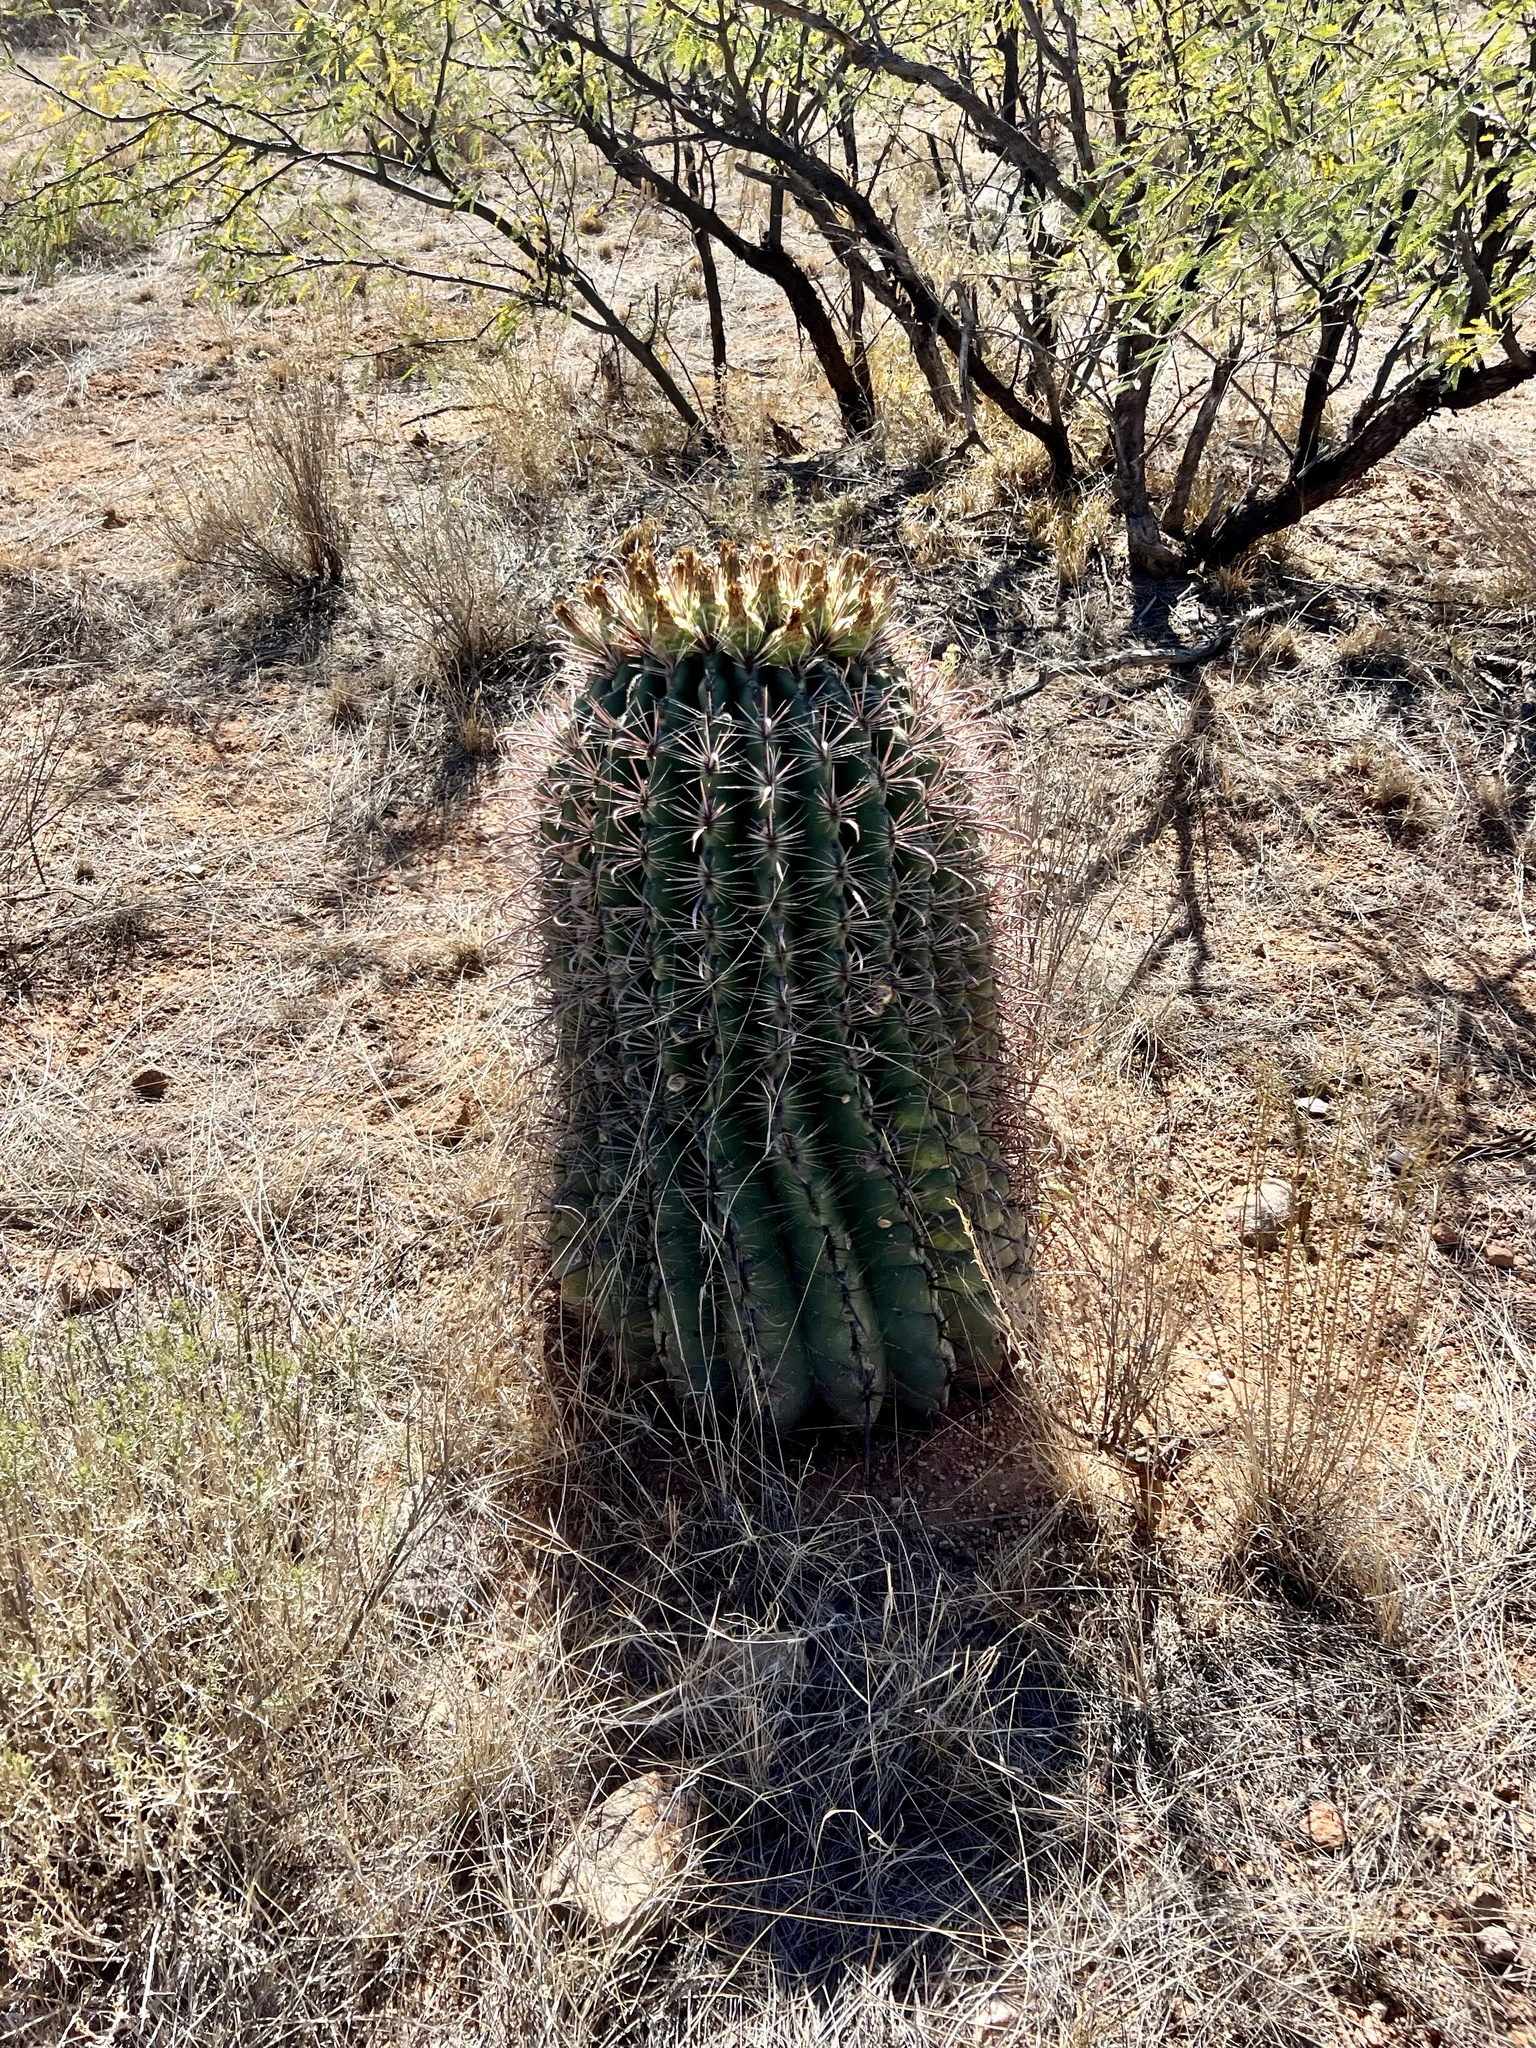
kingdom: Plantae
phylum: Tracheophyta
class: Magnoliopsida
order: Caryophyllales
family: Cactaceae
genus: Ferocactus
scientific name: Ferocactus wislizeni
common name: Candy barrel cactus
